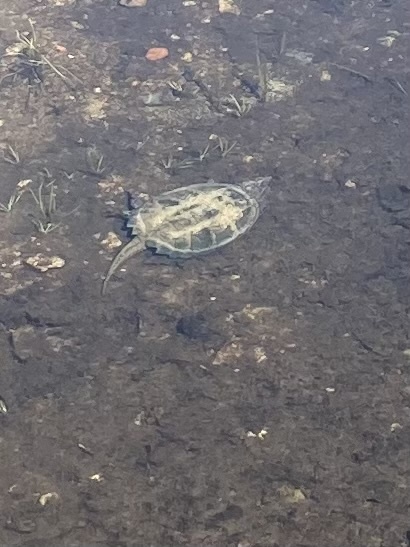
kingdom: Animalia
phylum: Chordata
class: Testudines
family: Chelydridae
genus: Chelydra
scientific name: Chelydra serpentina
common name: Common snapping turtle
